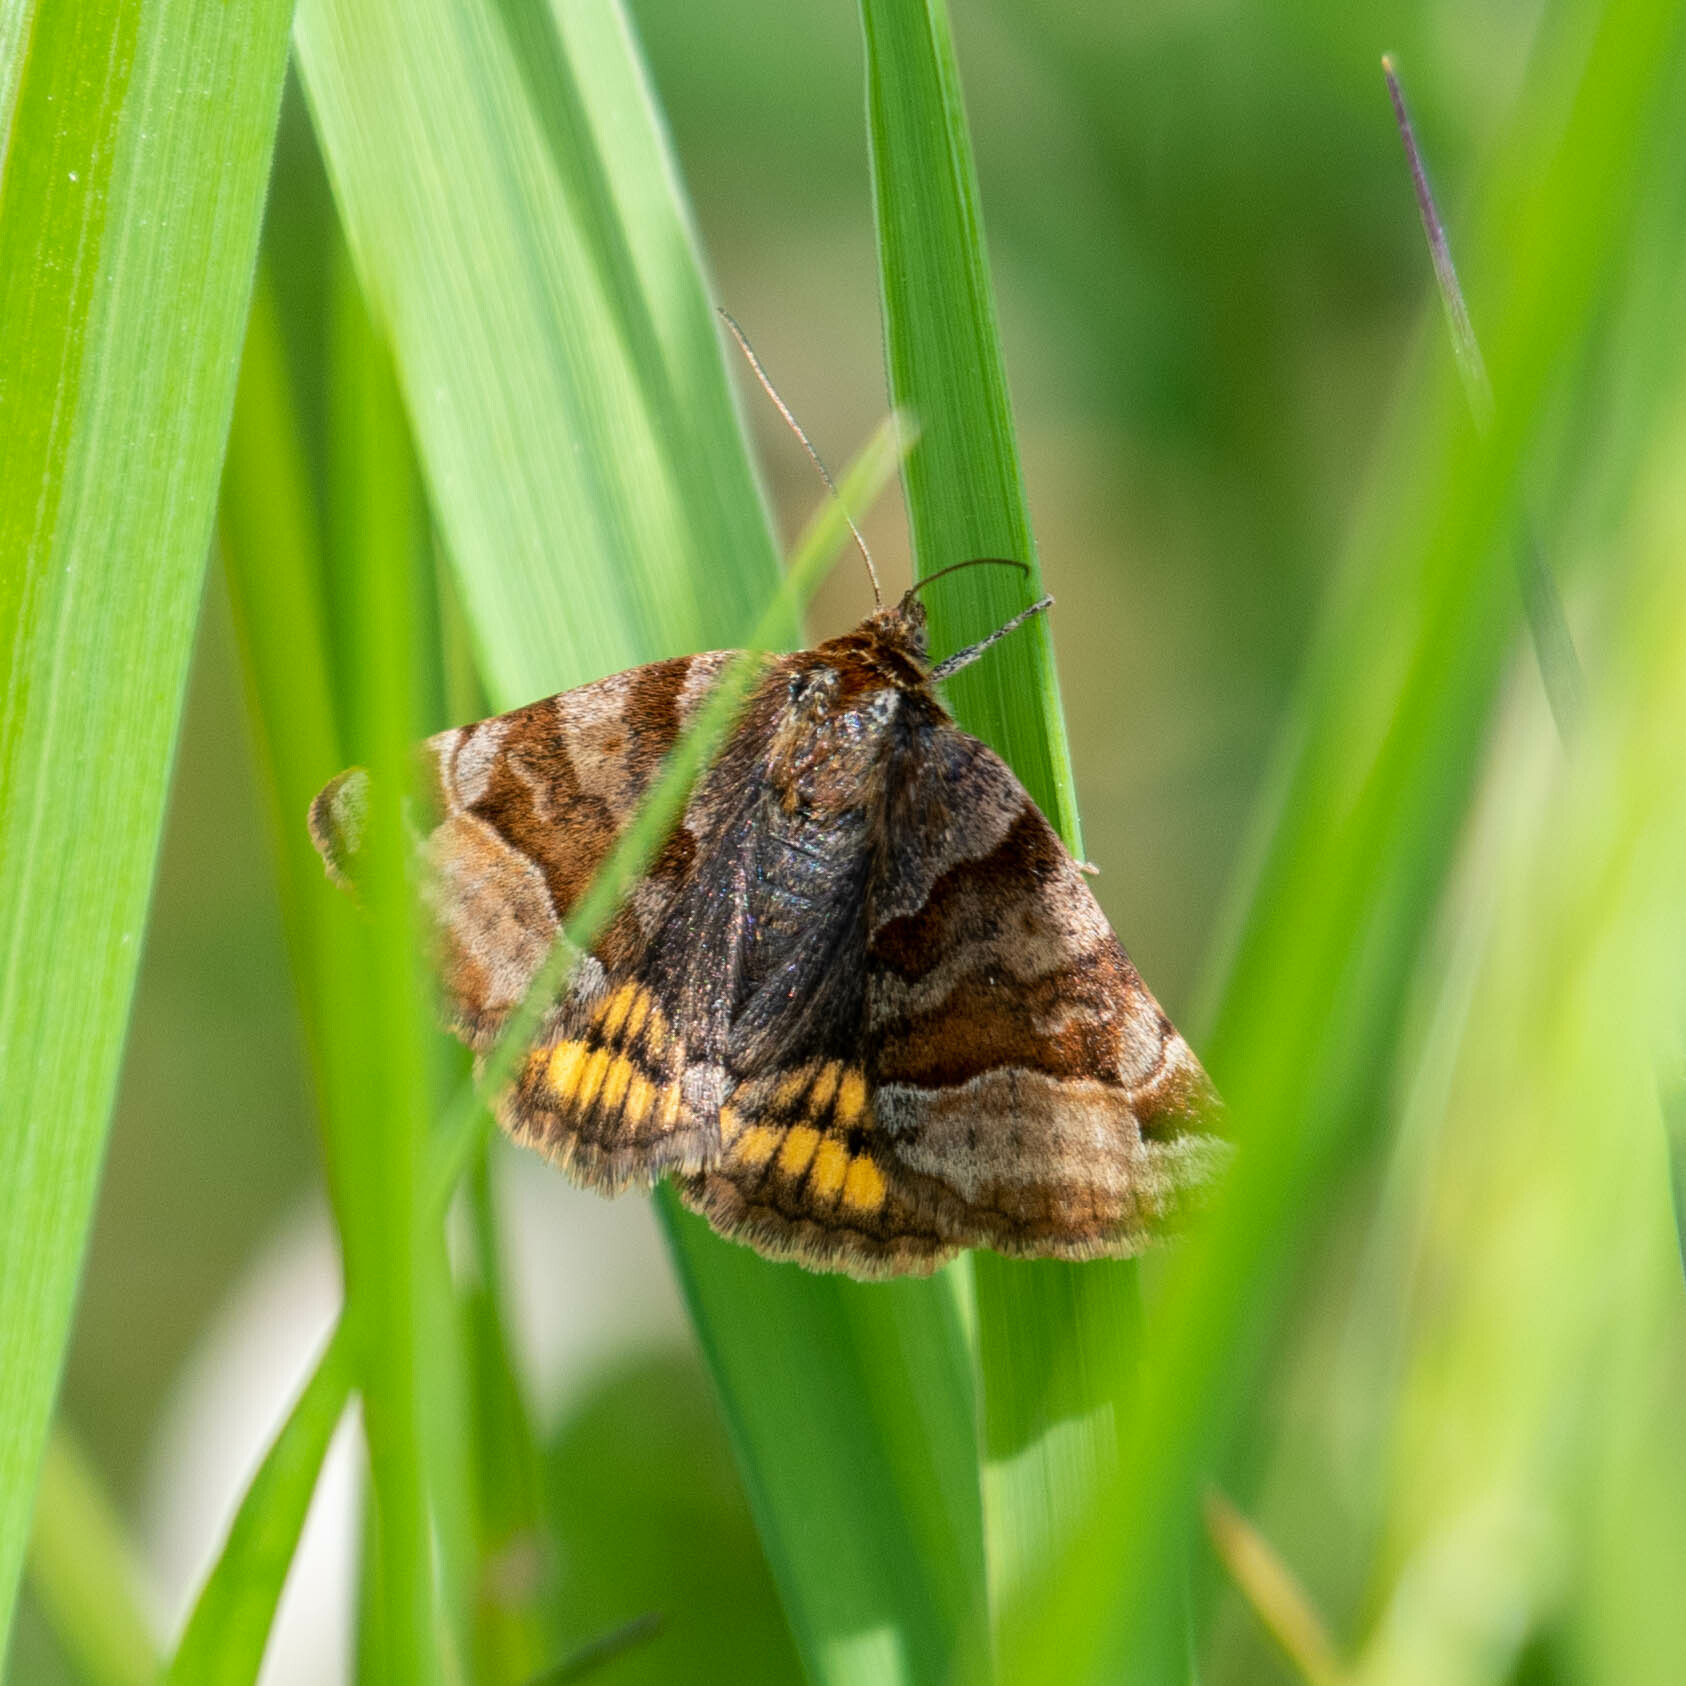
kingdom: Animalia
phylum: Arthropoda
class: Insecta
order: Lepidoptera
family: Erebidae
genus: Euclidia
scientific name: Euclidia glyphica
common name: Burnet companion
